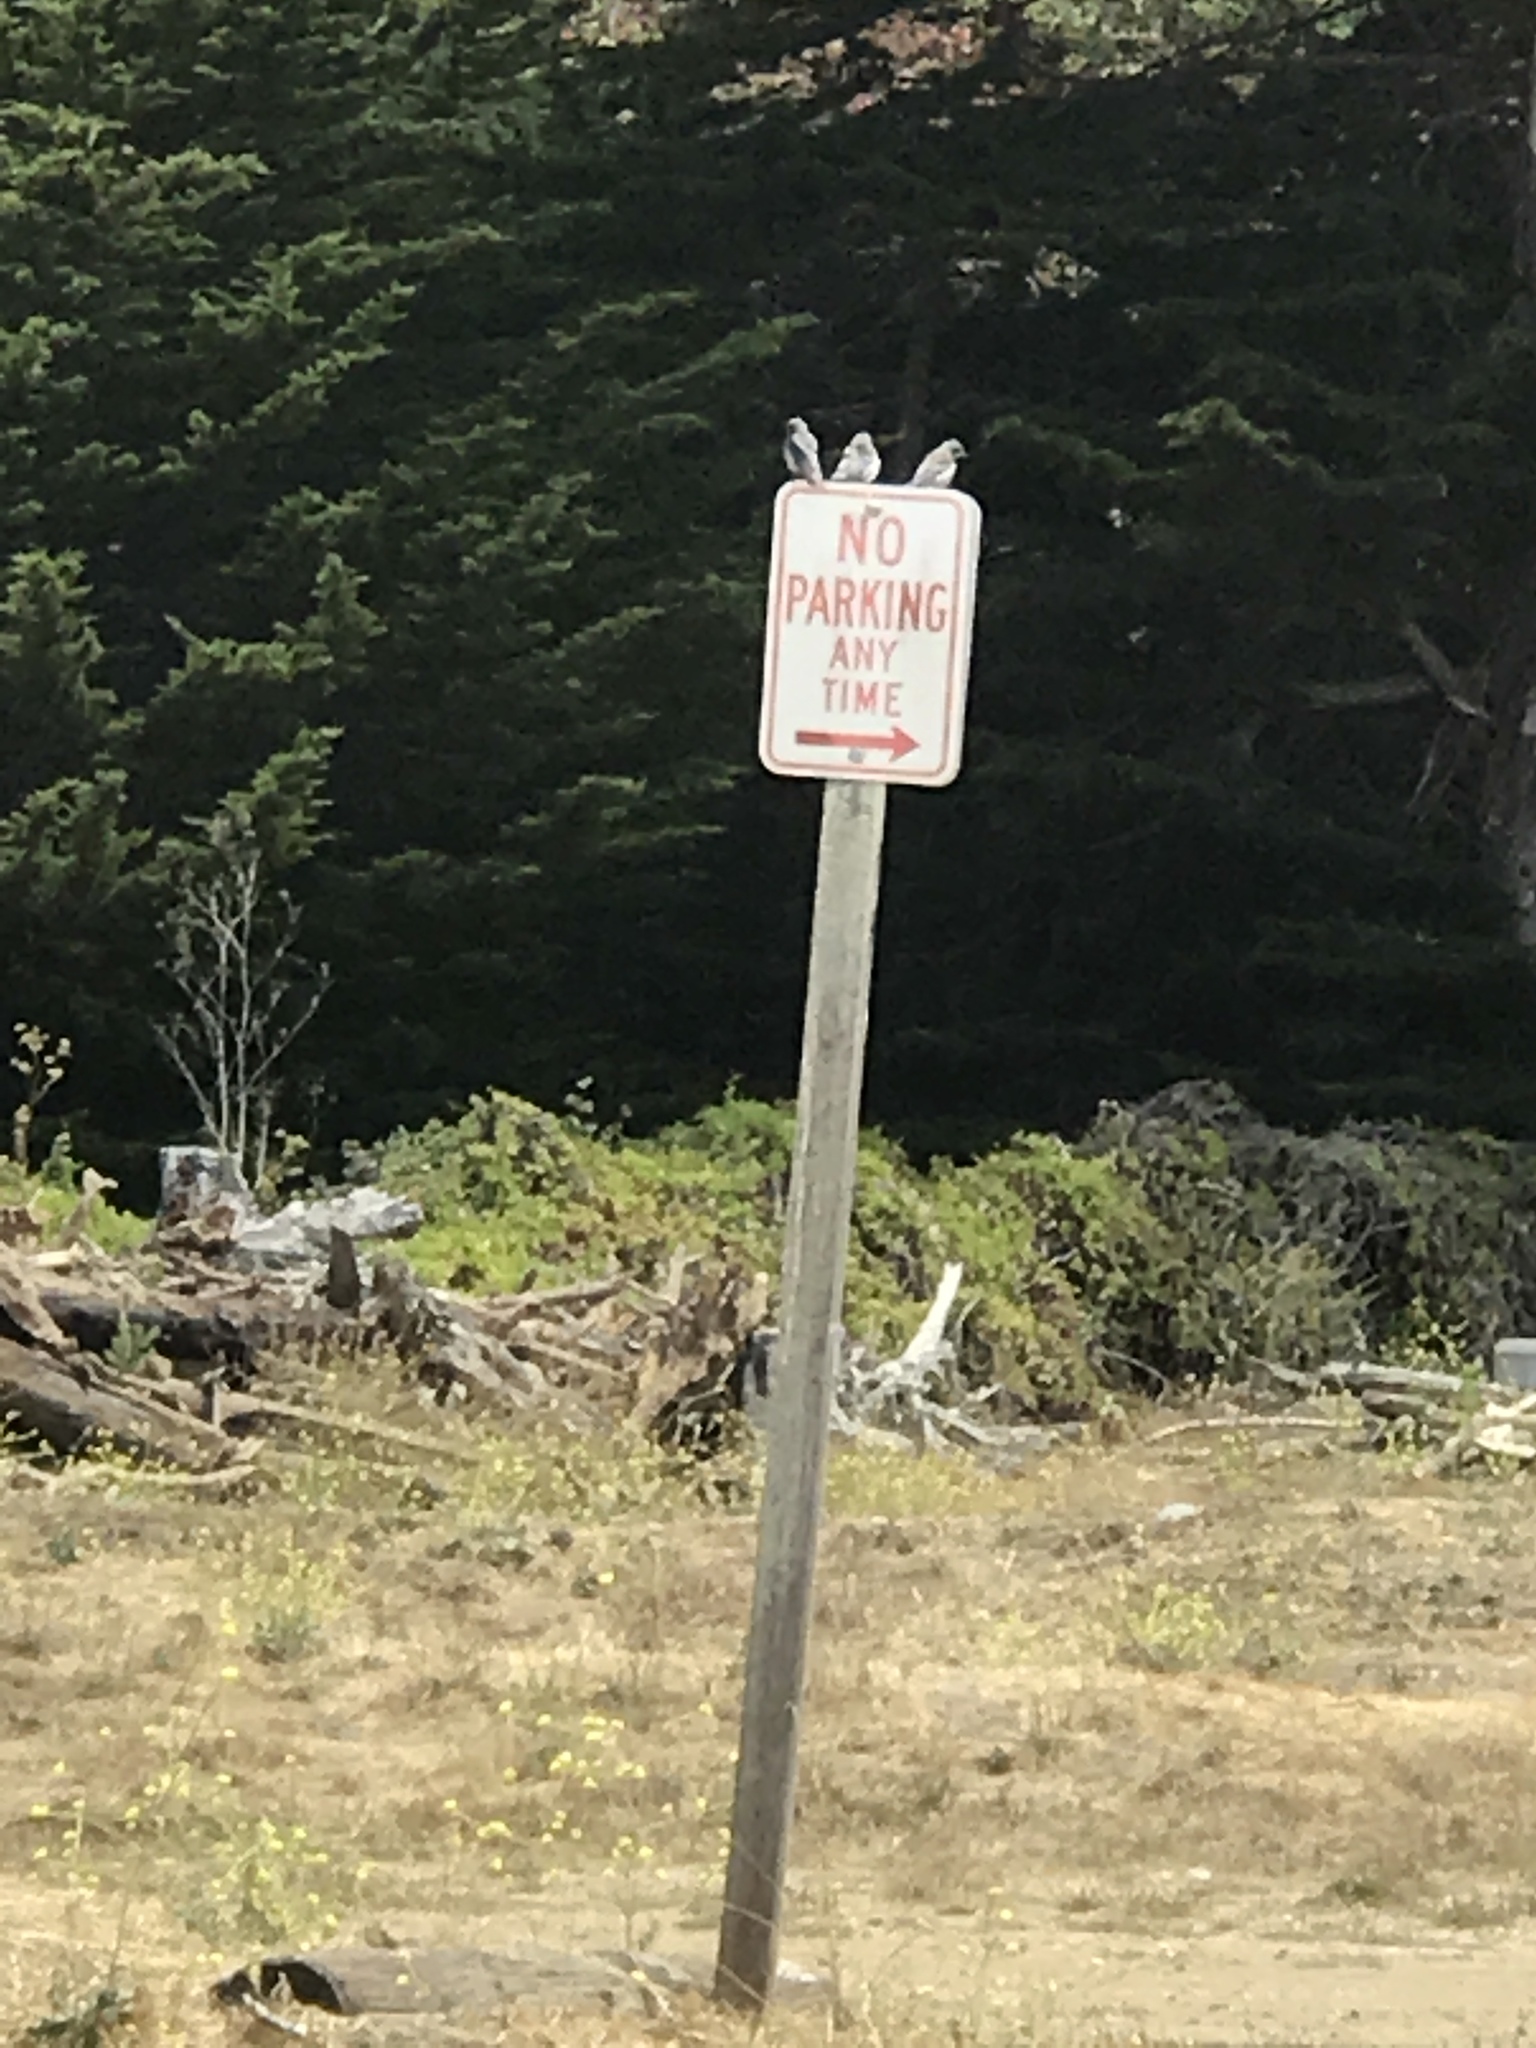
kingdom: Animalia
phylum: Chordata
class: Aves
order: Passeriformes
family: Turdidae
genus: Sialia
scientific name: Sialia mexicana
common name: Western bluebird
